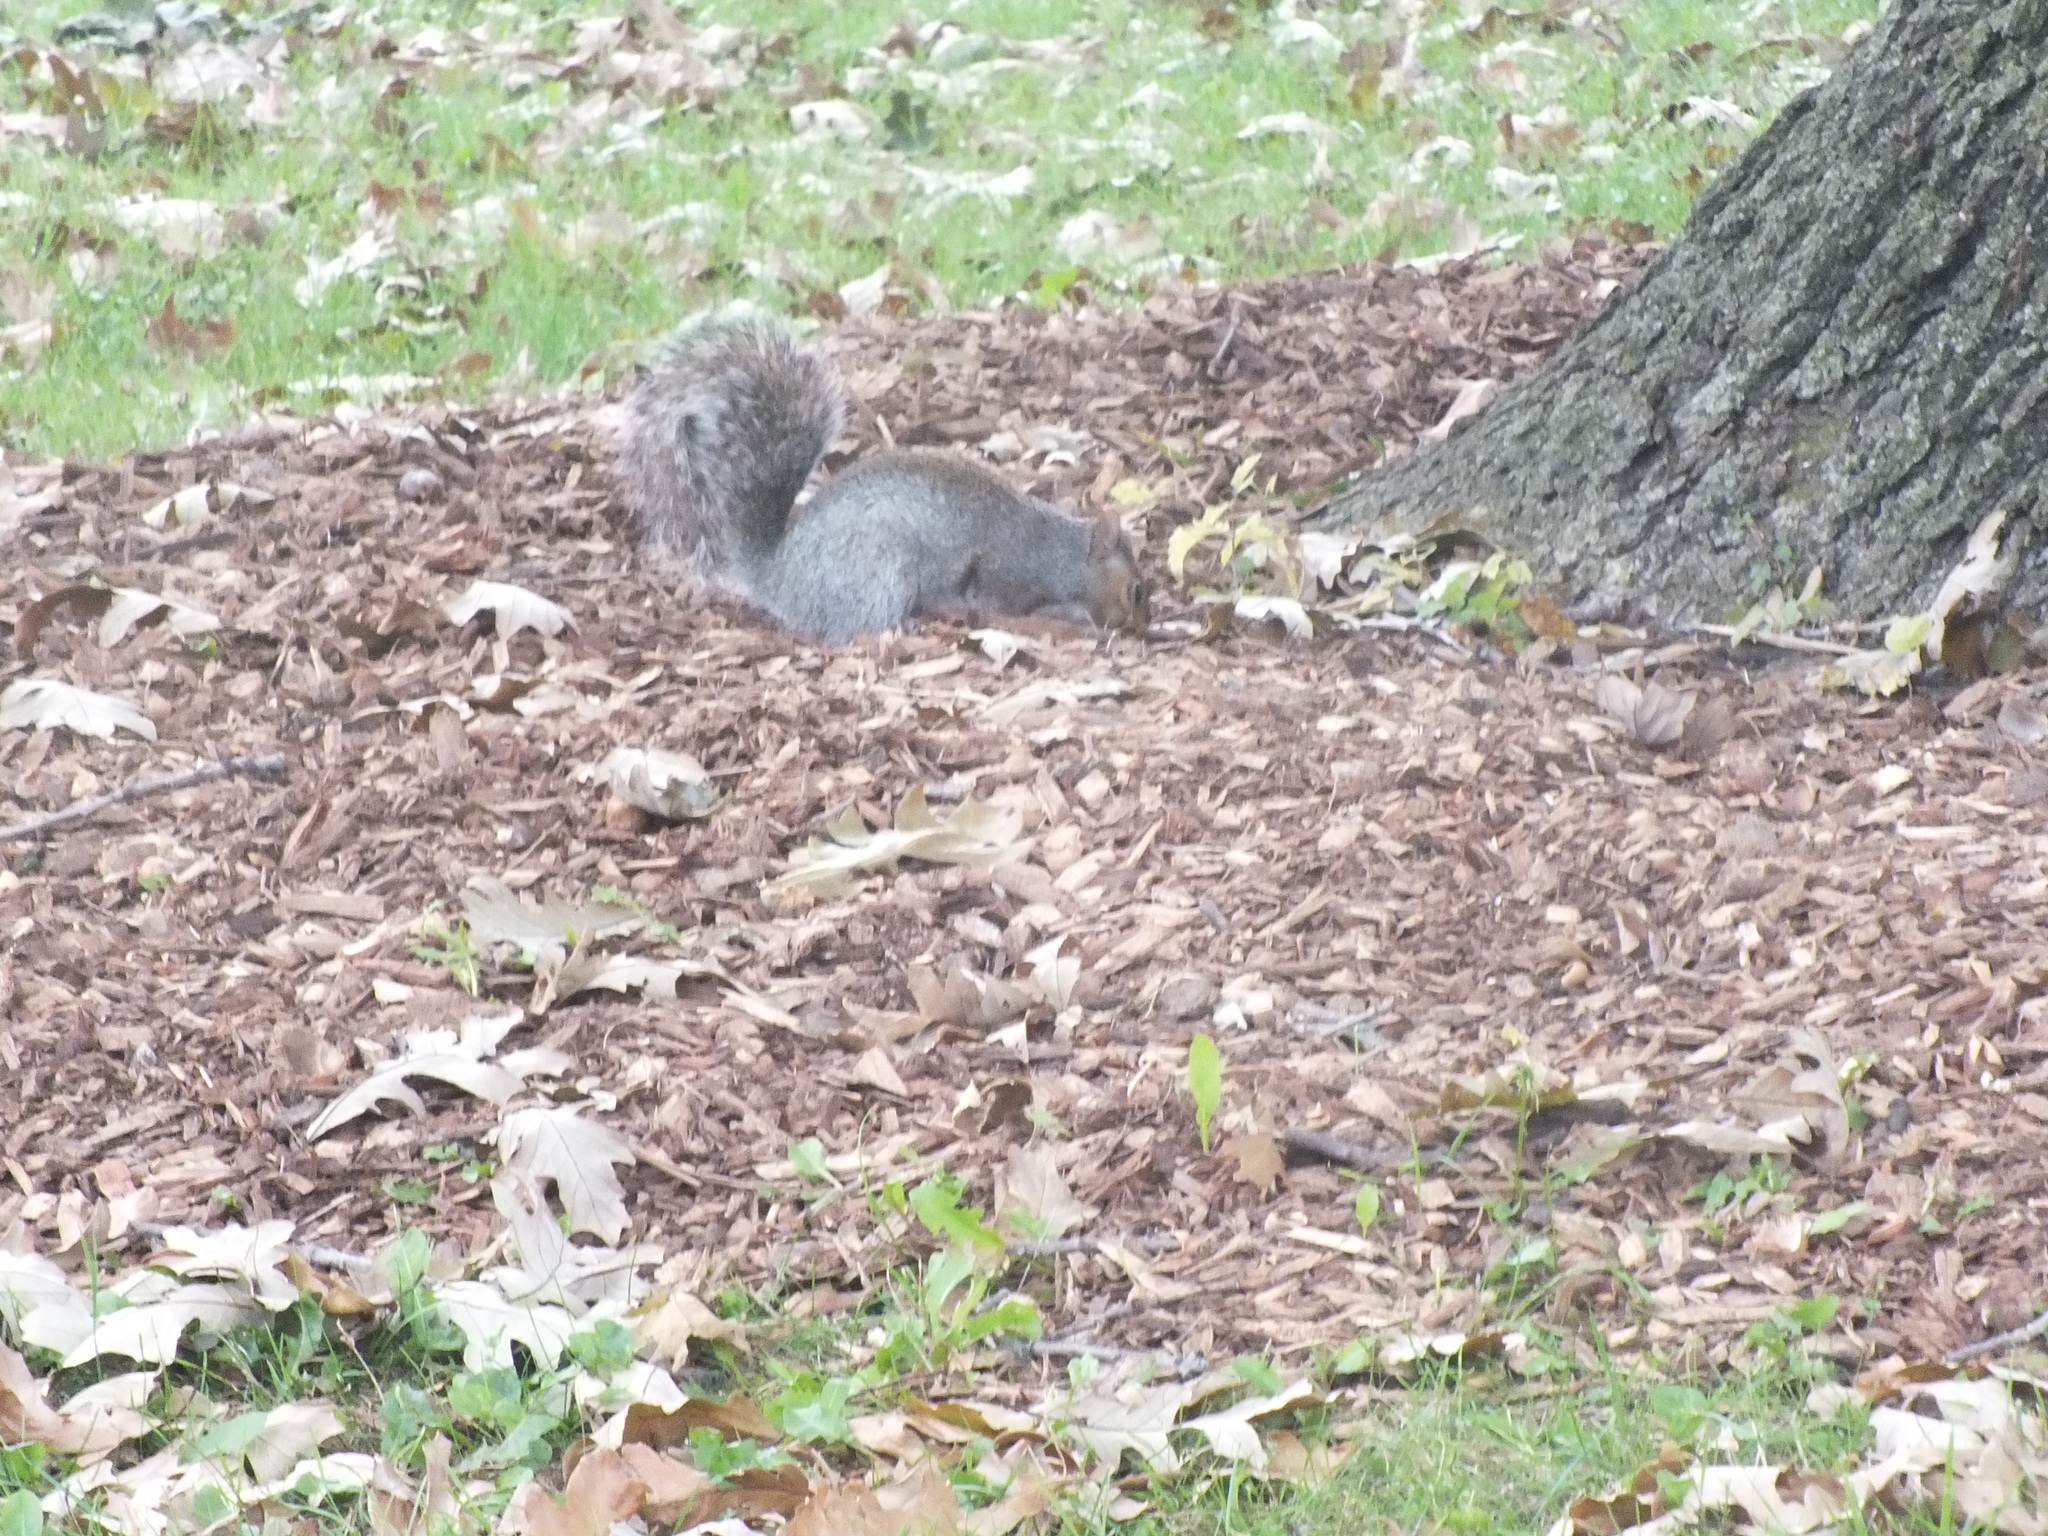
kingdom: Animalia
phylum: Chordata
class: Mammalia
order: Rodentia
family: Sciuridae
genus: Sciurus
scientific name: Sciurus carolinensis
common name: Eastern gray squirrel
